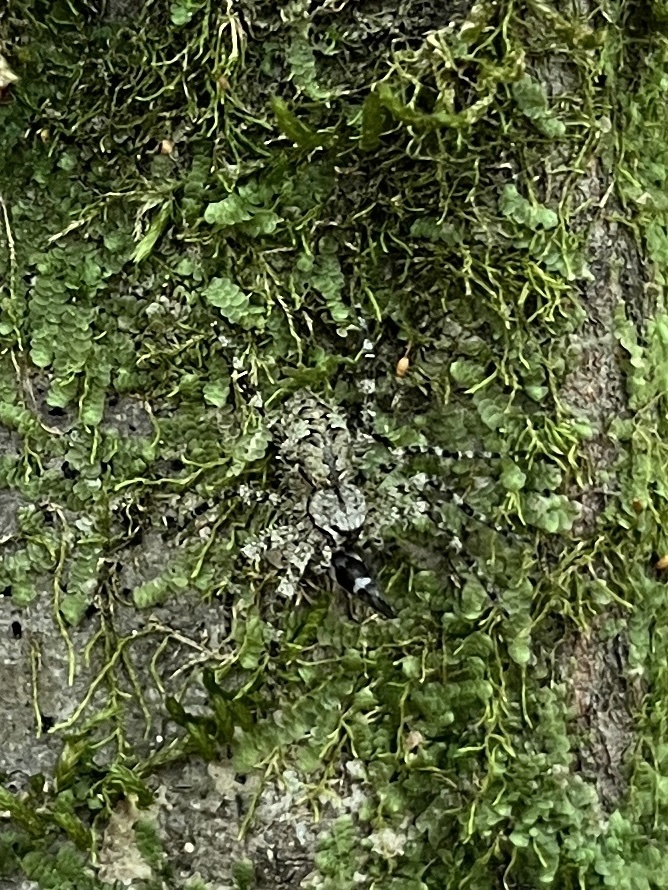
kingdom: Animalia
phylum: Arthropoda
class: Arachnida
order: Araneae
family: Pisauridae
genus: Dolomedes
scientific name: Dolomedes albineus
